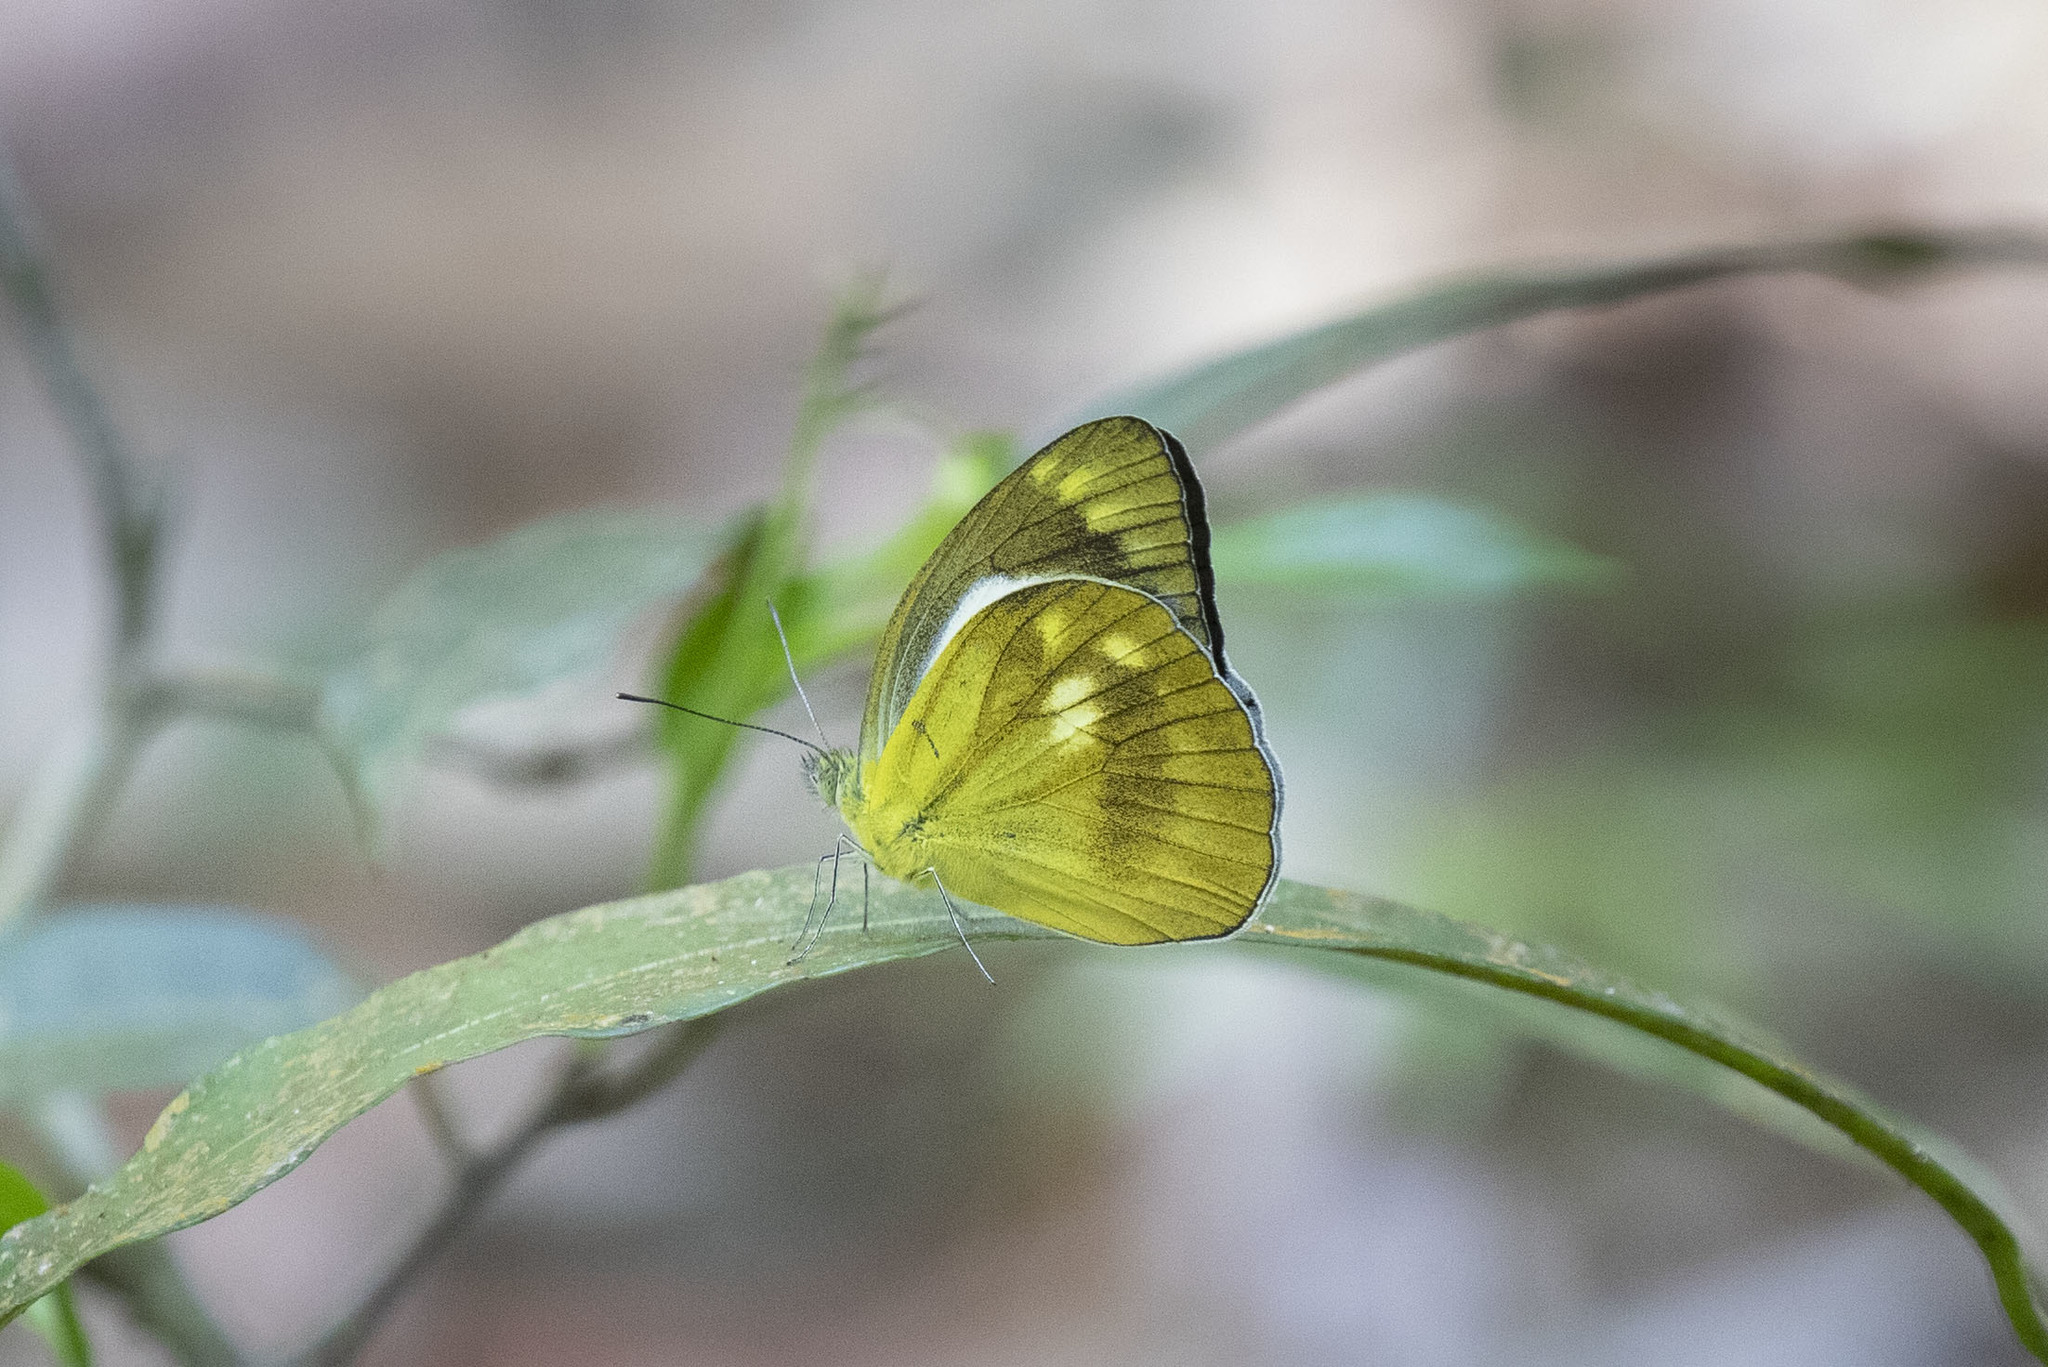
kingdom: Animalia
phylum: Arthropoda
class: Insecta
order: Lepidoptera
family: Pieridae
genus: Cepora
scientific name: Cepora nadina
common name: Lesser gull
